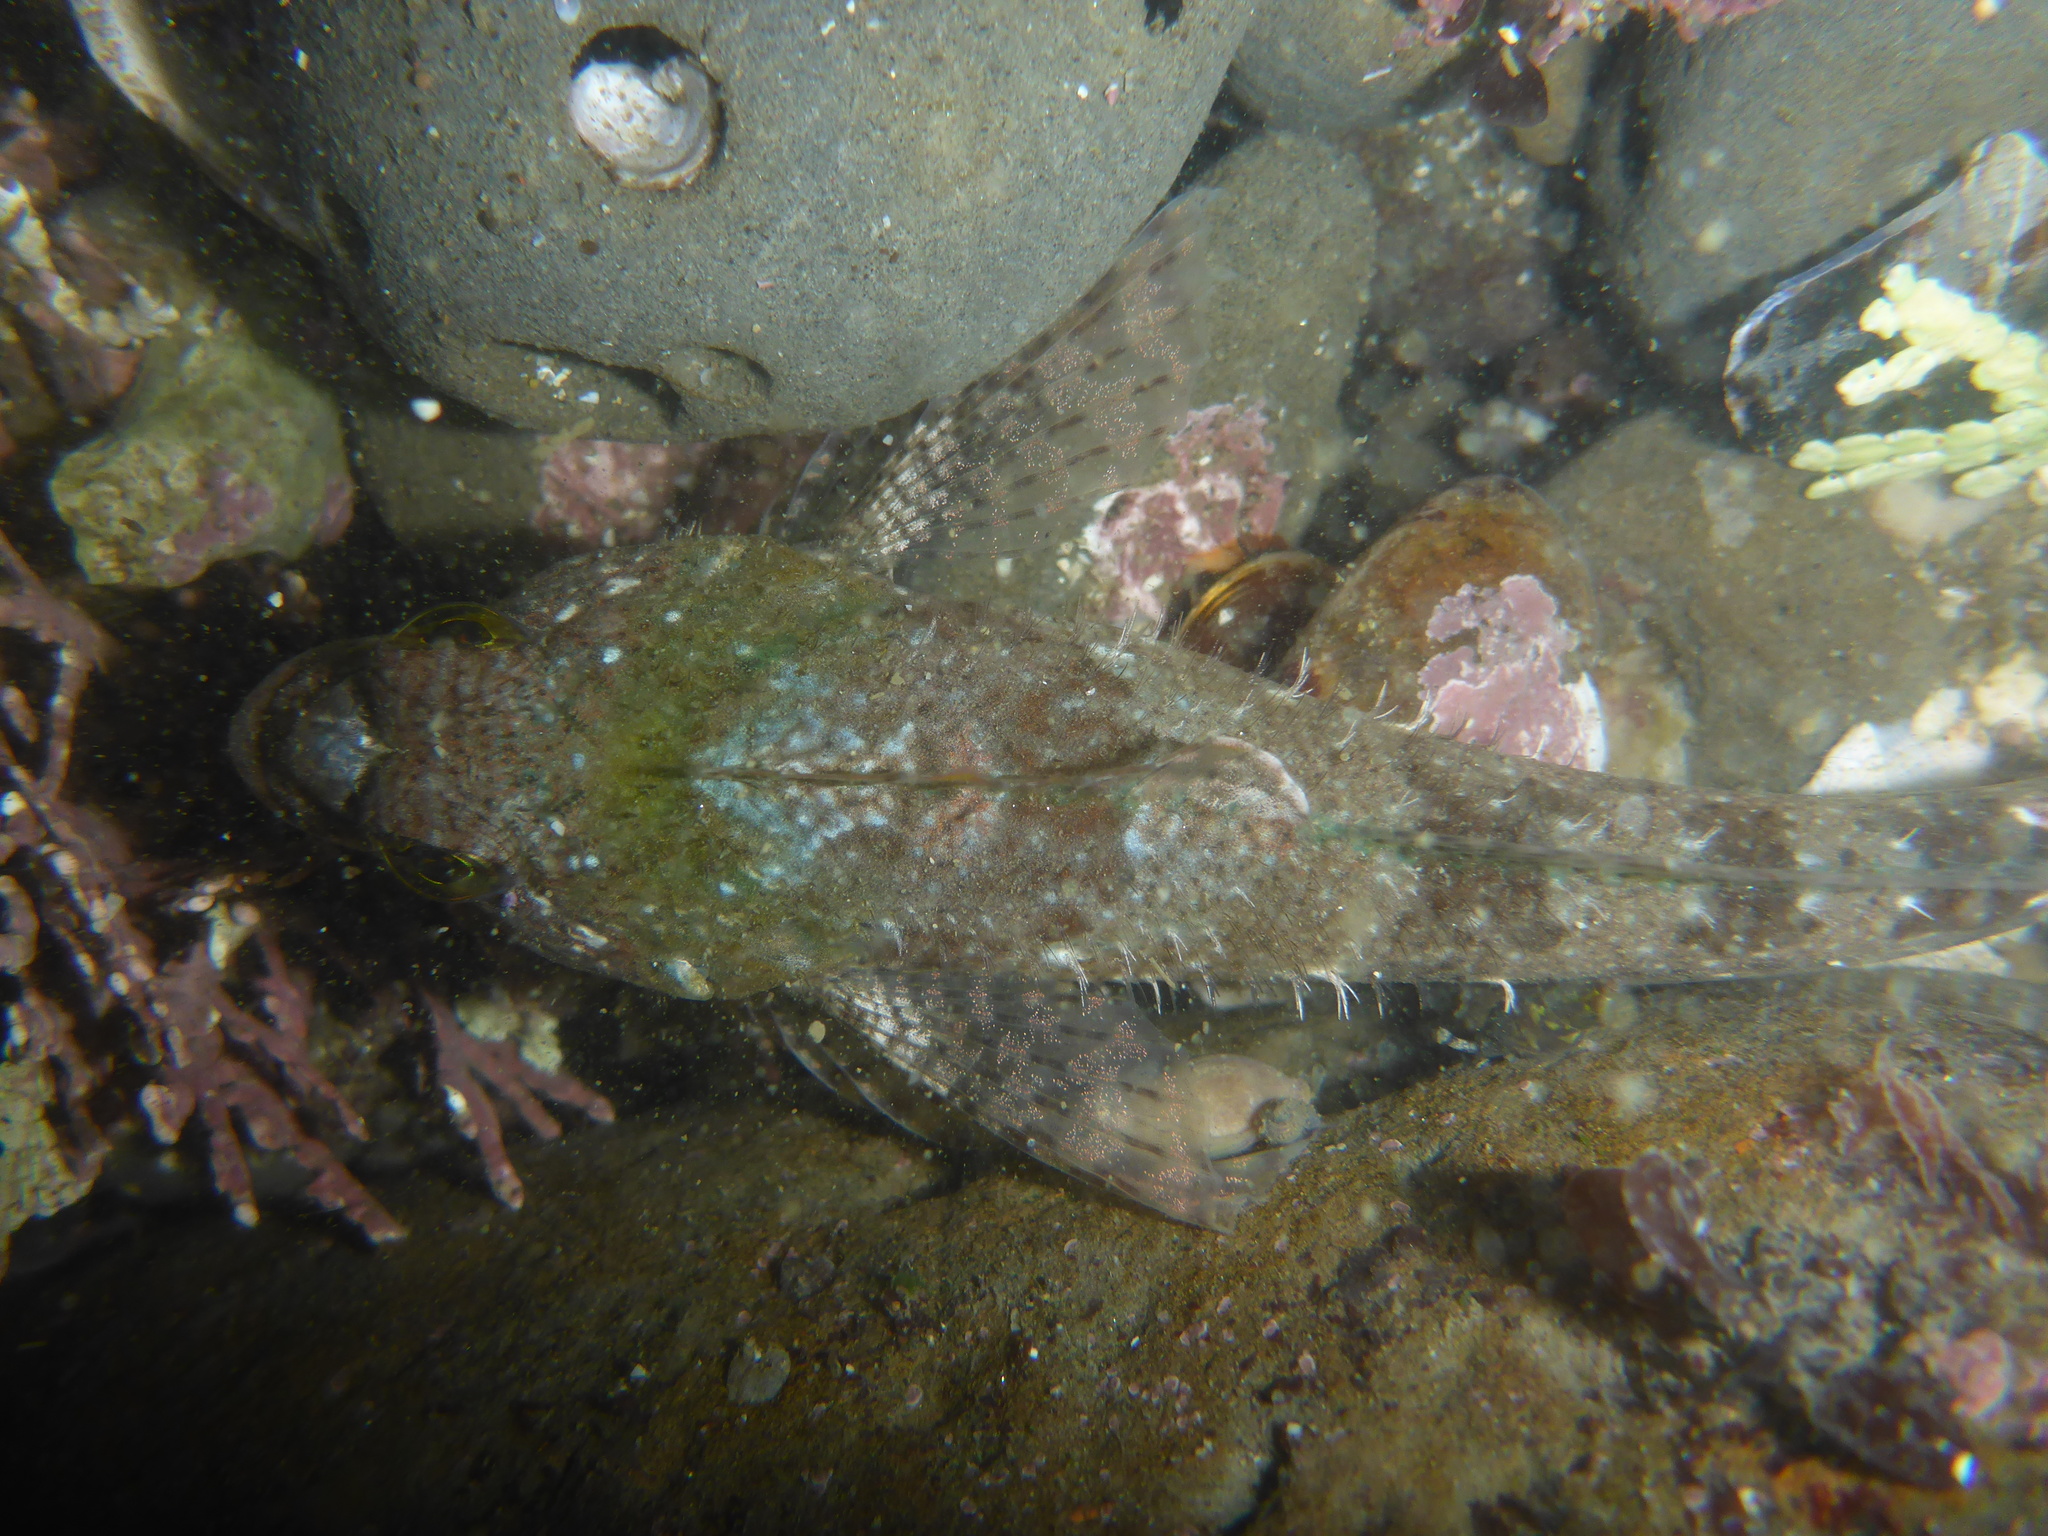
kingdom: Animalia
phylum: Chordata
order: Scorpaeniformes
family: Cottidae
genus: Clinocottus
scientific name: Clinocottus analis
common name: Woolly sculpin
